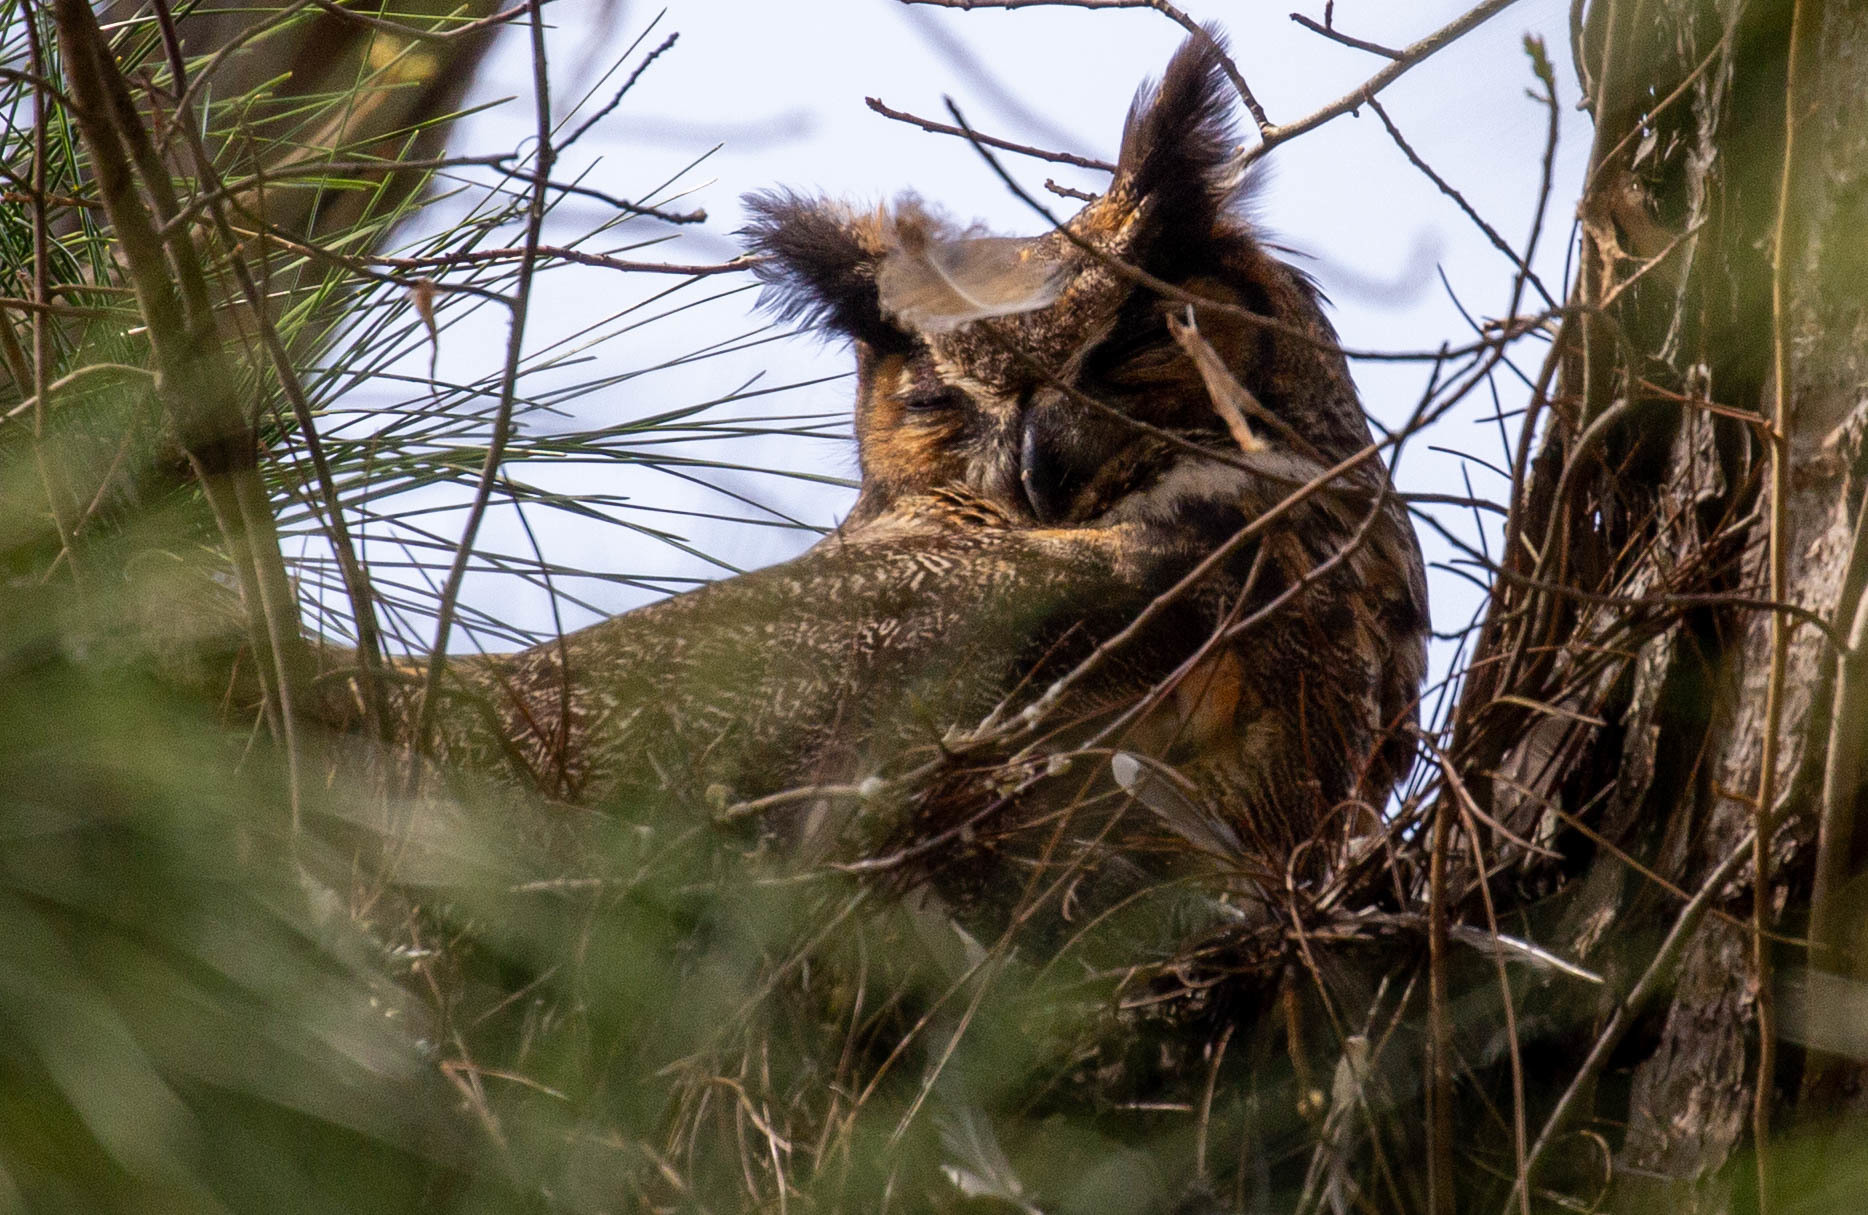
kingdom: Animalia
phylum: Chordata
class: Aves
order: Strigiformes
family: Strigidae
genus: Bubo
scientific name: Bubo virginianus
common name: Great horned owl
